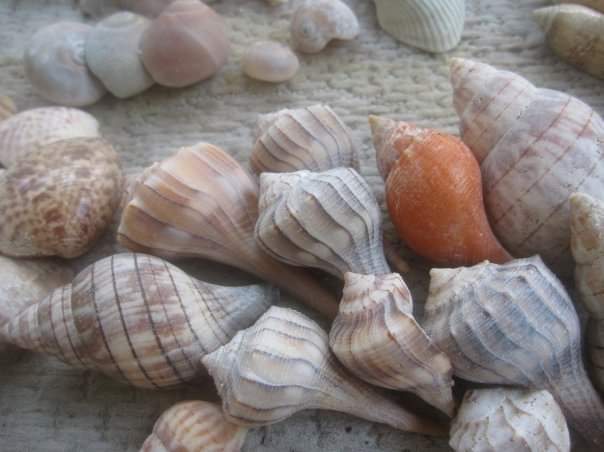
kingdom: Animalia
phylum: Mollusca
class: Gastropoda
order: Neogastropoda
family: Busyconidae
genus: Sinistrofulgur
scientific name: Sinistrofulgur sinistrum
